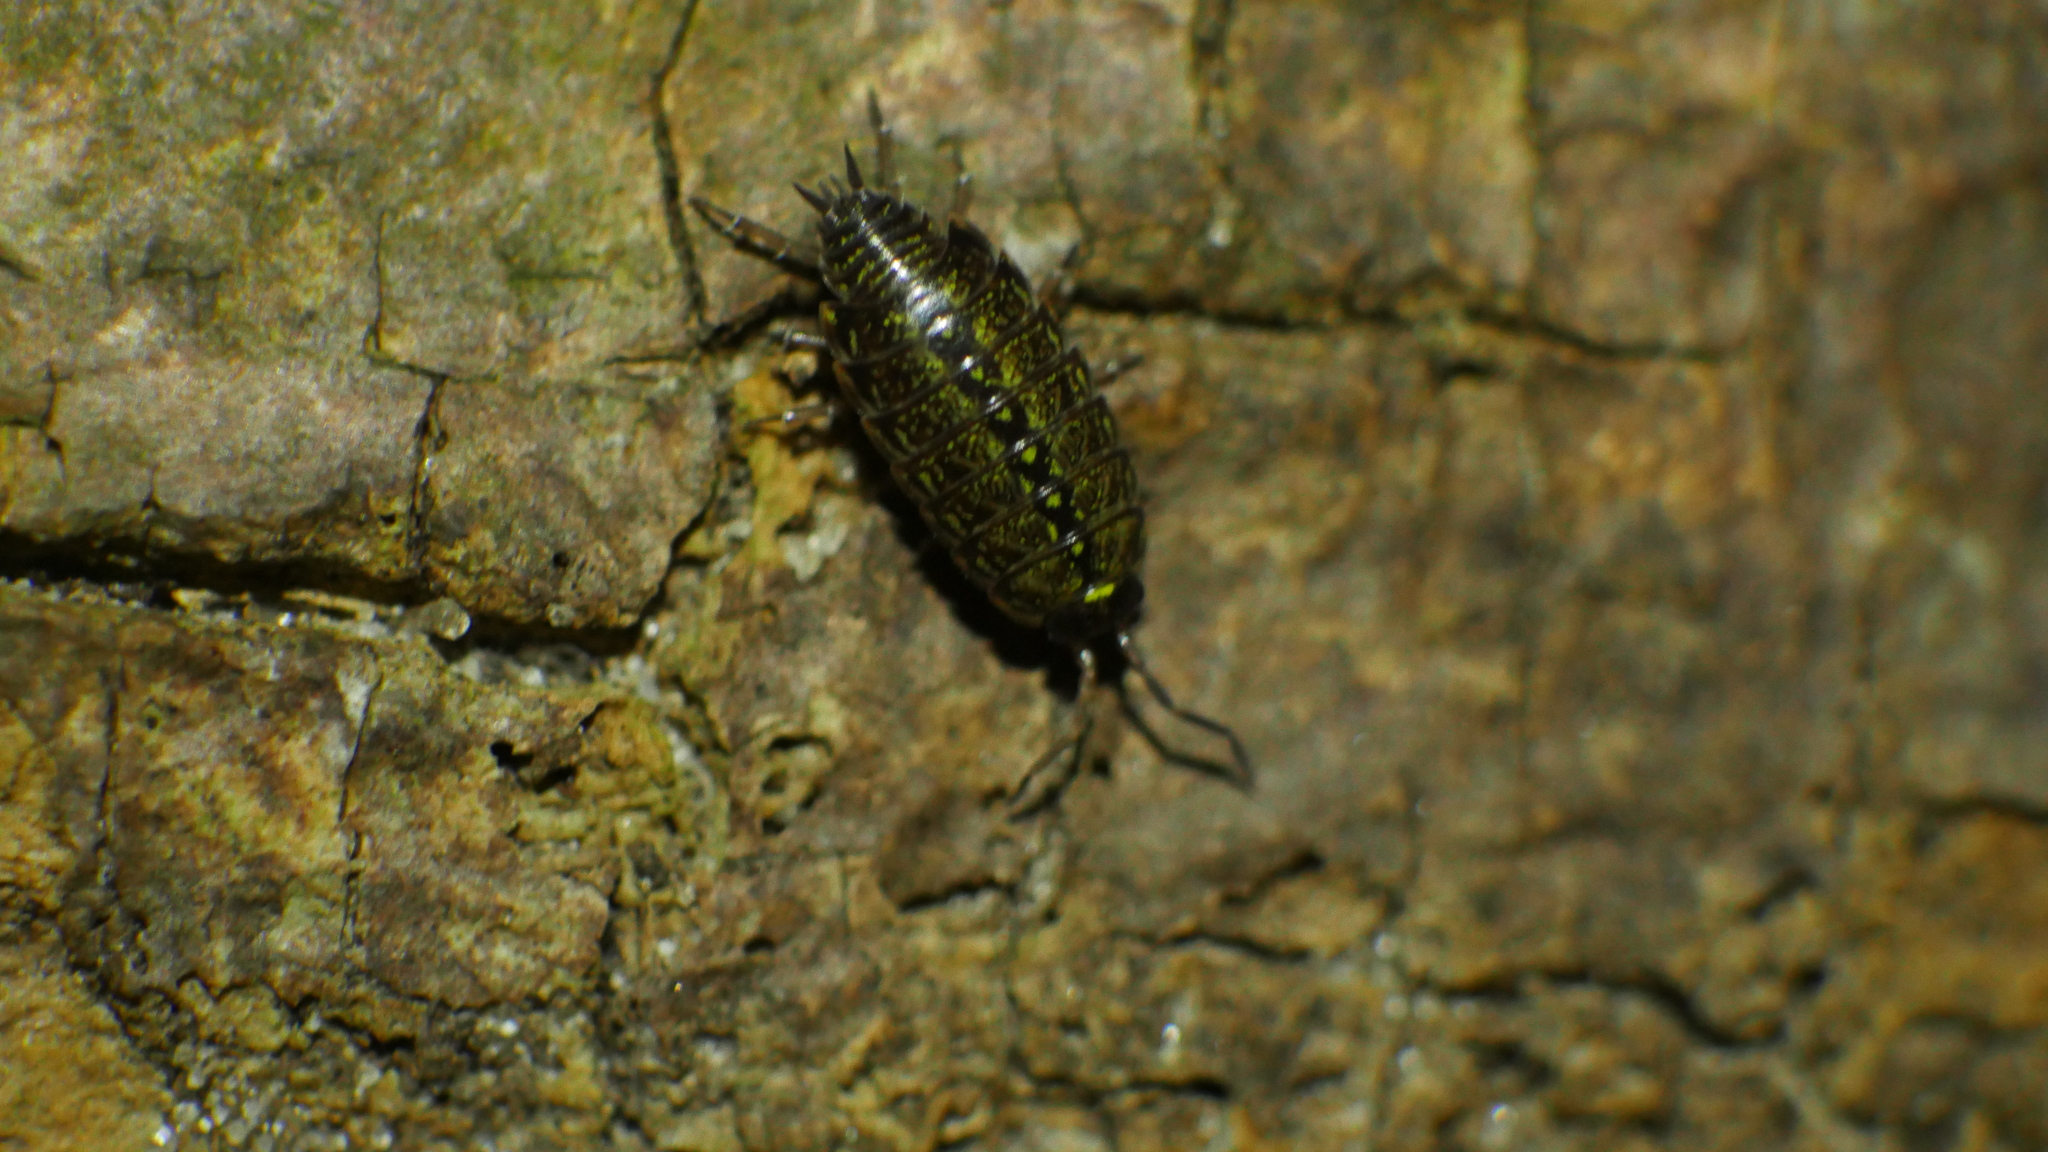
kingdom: Animalia
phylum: Arthropoda
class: Malacostraca
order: Isopoda
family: Philosciidae
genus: Philoscia
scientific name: Philoscia muscorum
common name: Common striped woodlouse
